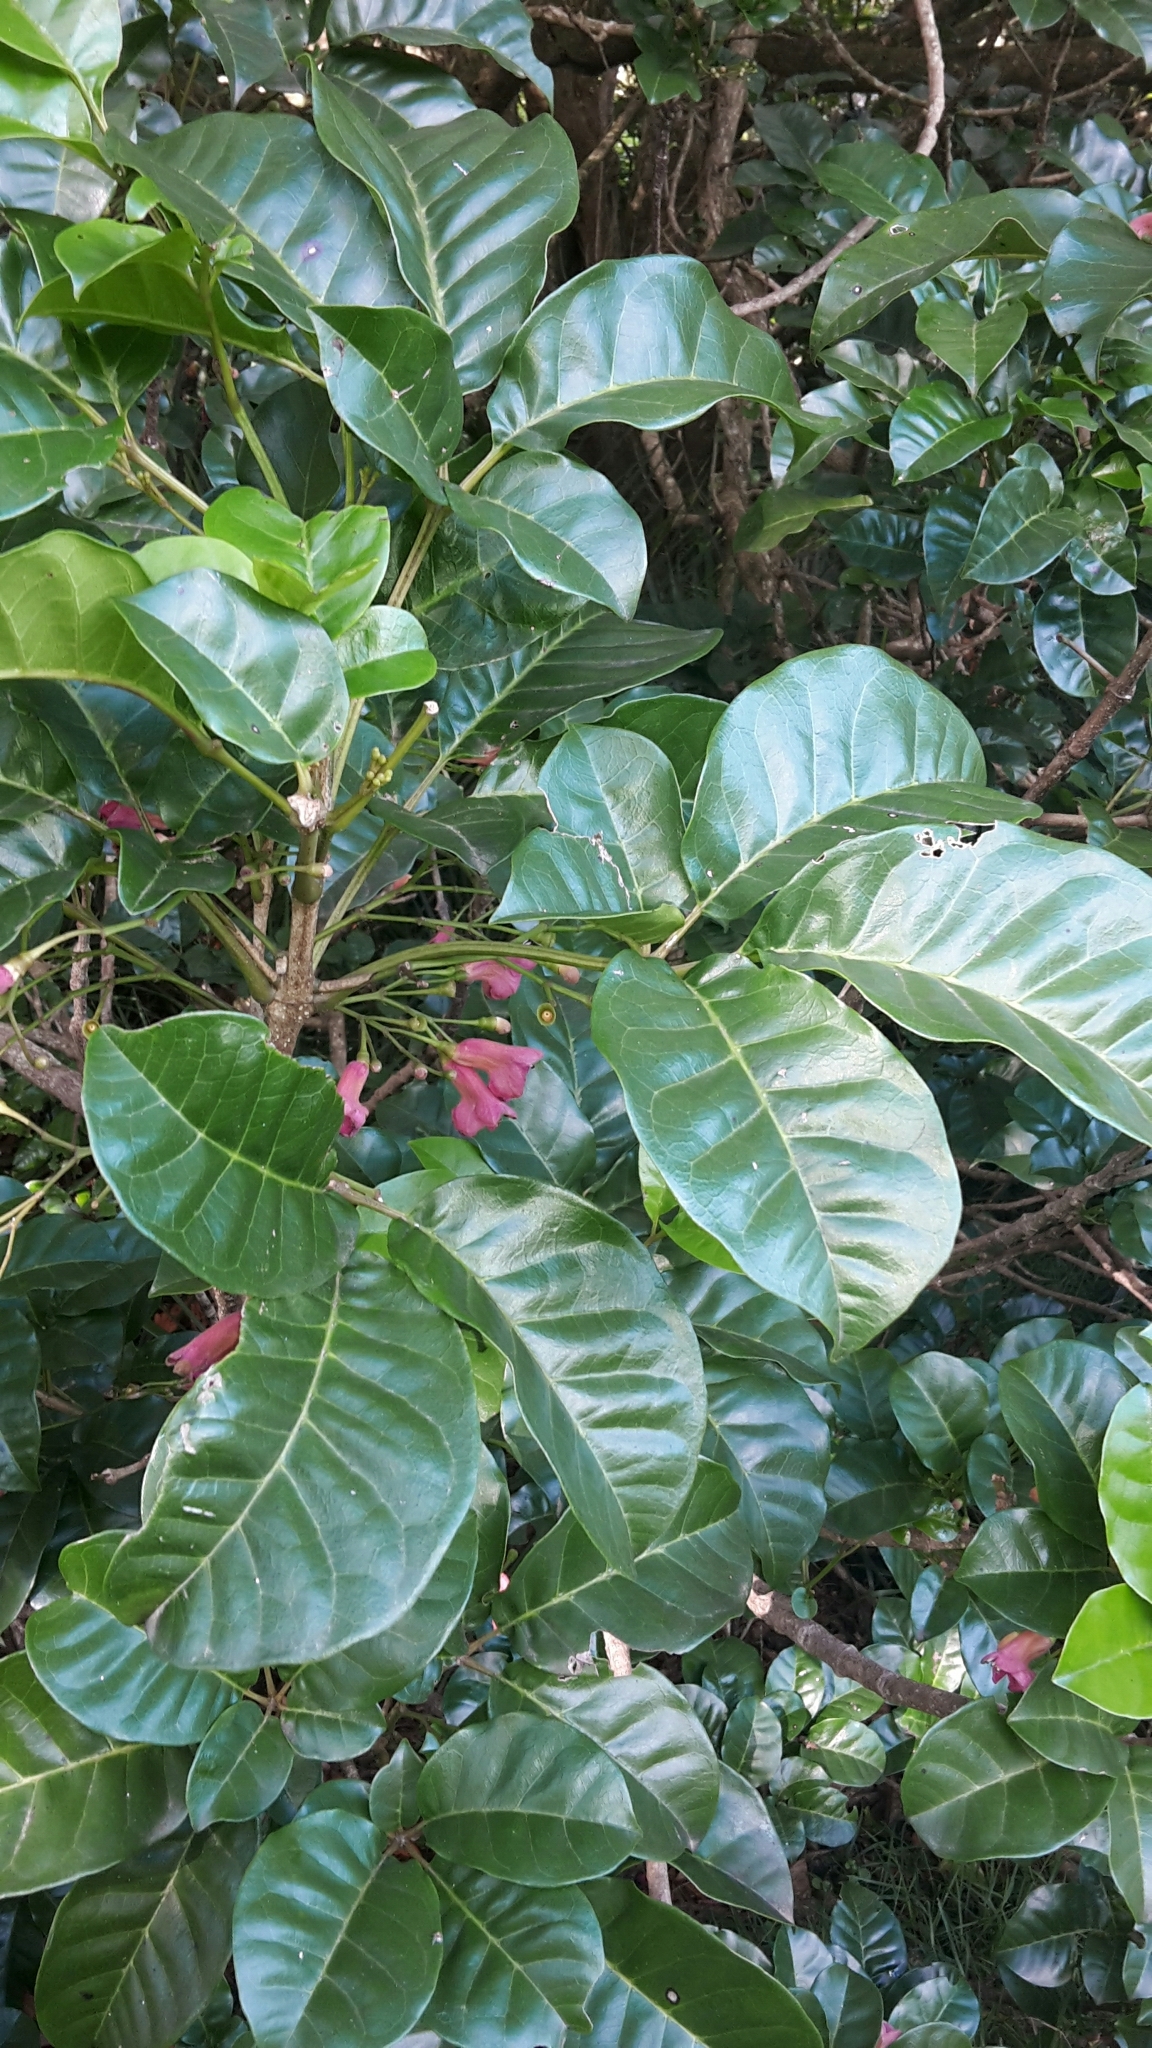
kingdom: Plantae
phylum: Tracheophyta
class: Magnoliopsida
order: Lamiales
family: Lamiaceae
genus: Vitex
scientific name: Vitex lucens
